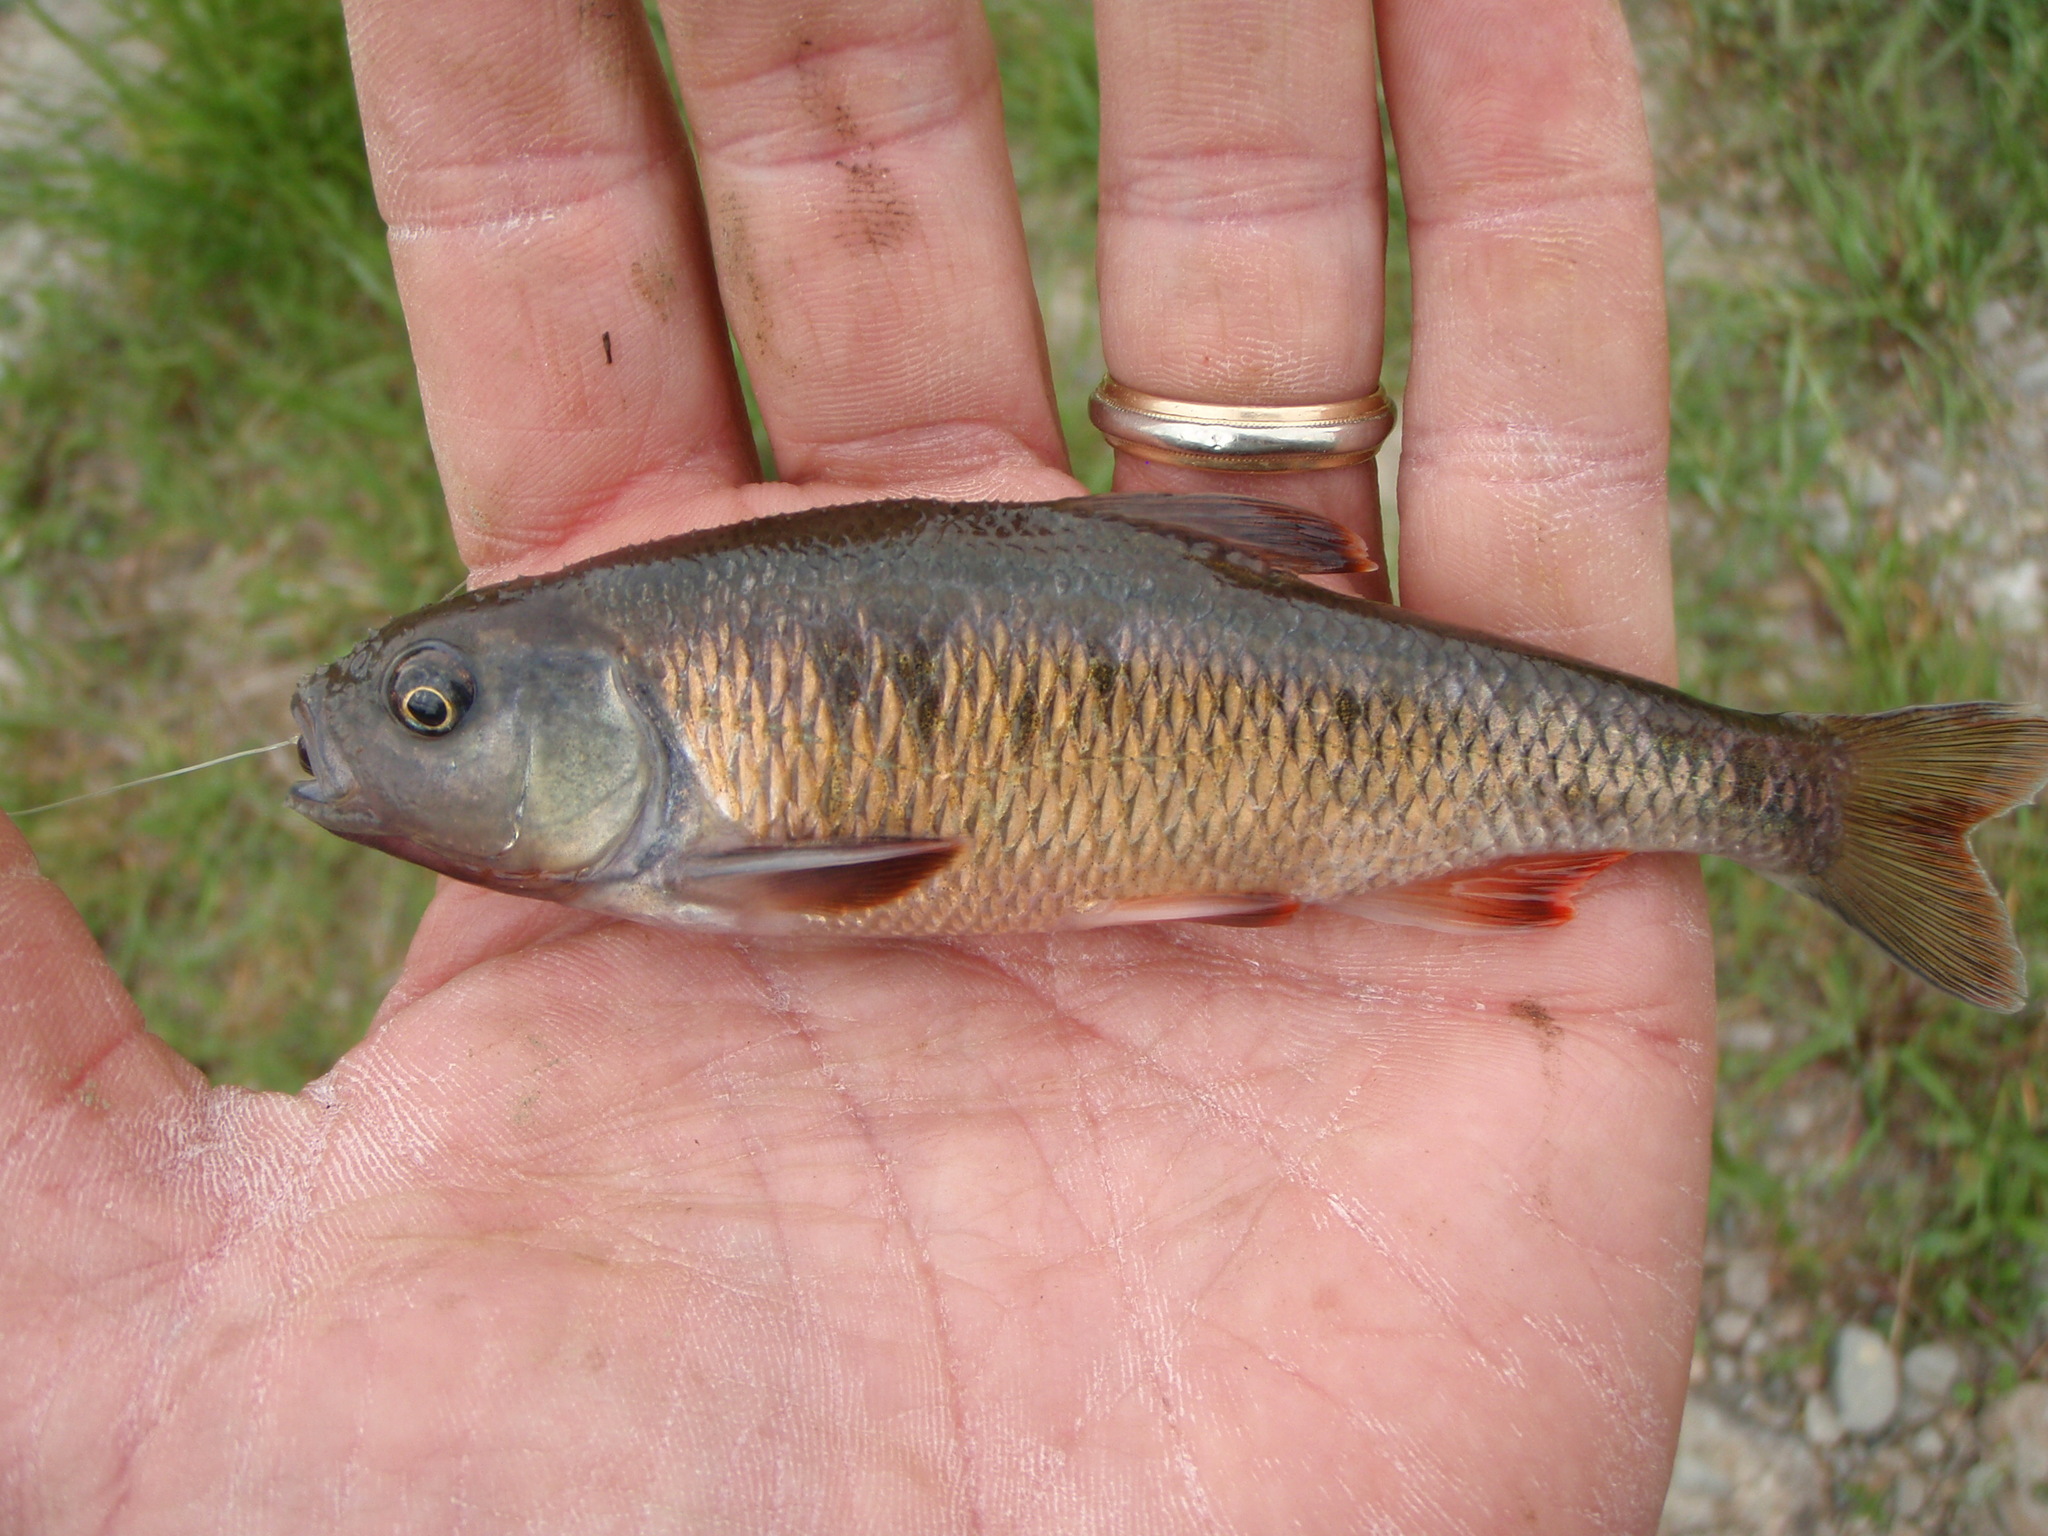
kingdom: Animalia
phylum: Chordata
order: Cypriniformes
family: Cyprinidae
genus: Luxilus
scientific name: Luxilus cornutus
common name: Common shiner
